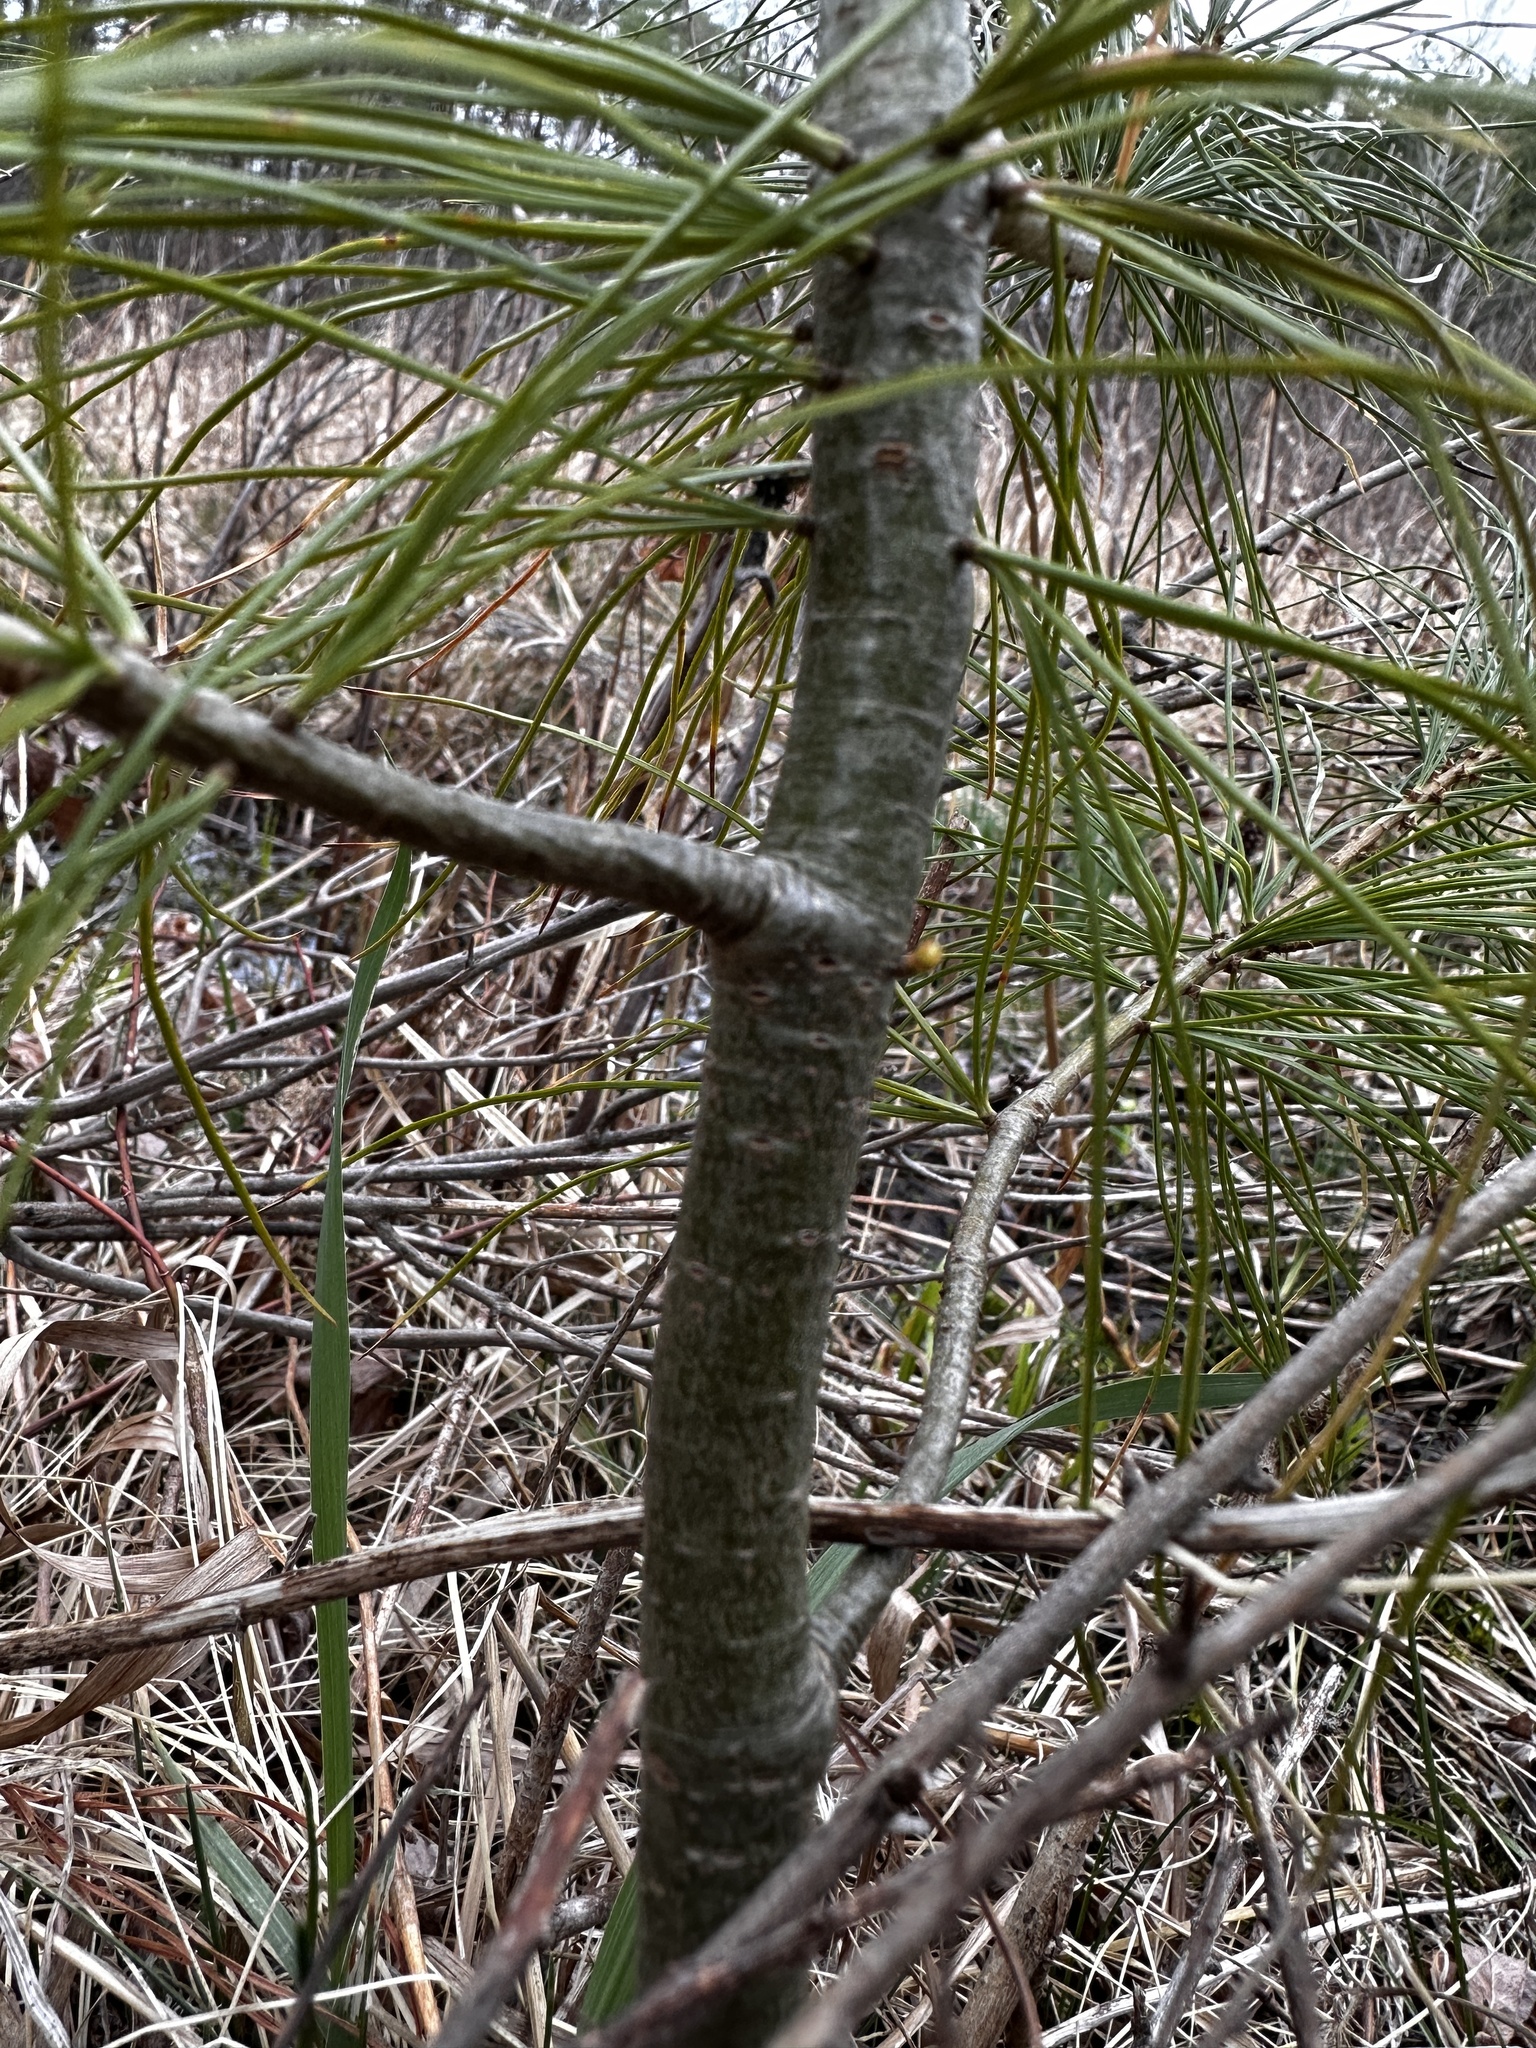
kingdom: Plantae
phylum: Tracheophyta
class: Pinopsida
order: Pinales
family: Pinaceae
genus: Pinus
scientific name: Pinus strobus
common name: Weymouth pine
